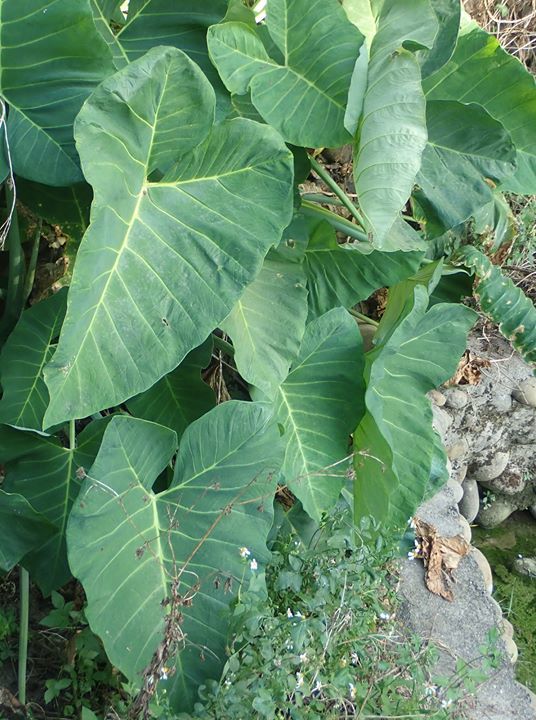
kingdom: Plantae
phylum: Tracheophyta
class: Liliopsida
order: Alismatales
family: Araceae
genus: Xanthosoma
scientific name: Xanthosoma sagittifolium
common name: Arrowleaf elephant's ear
